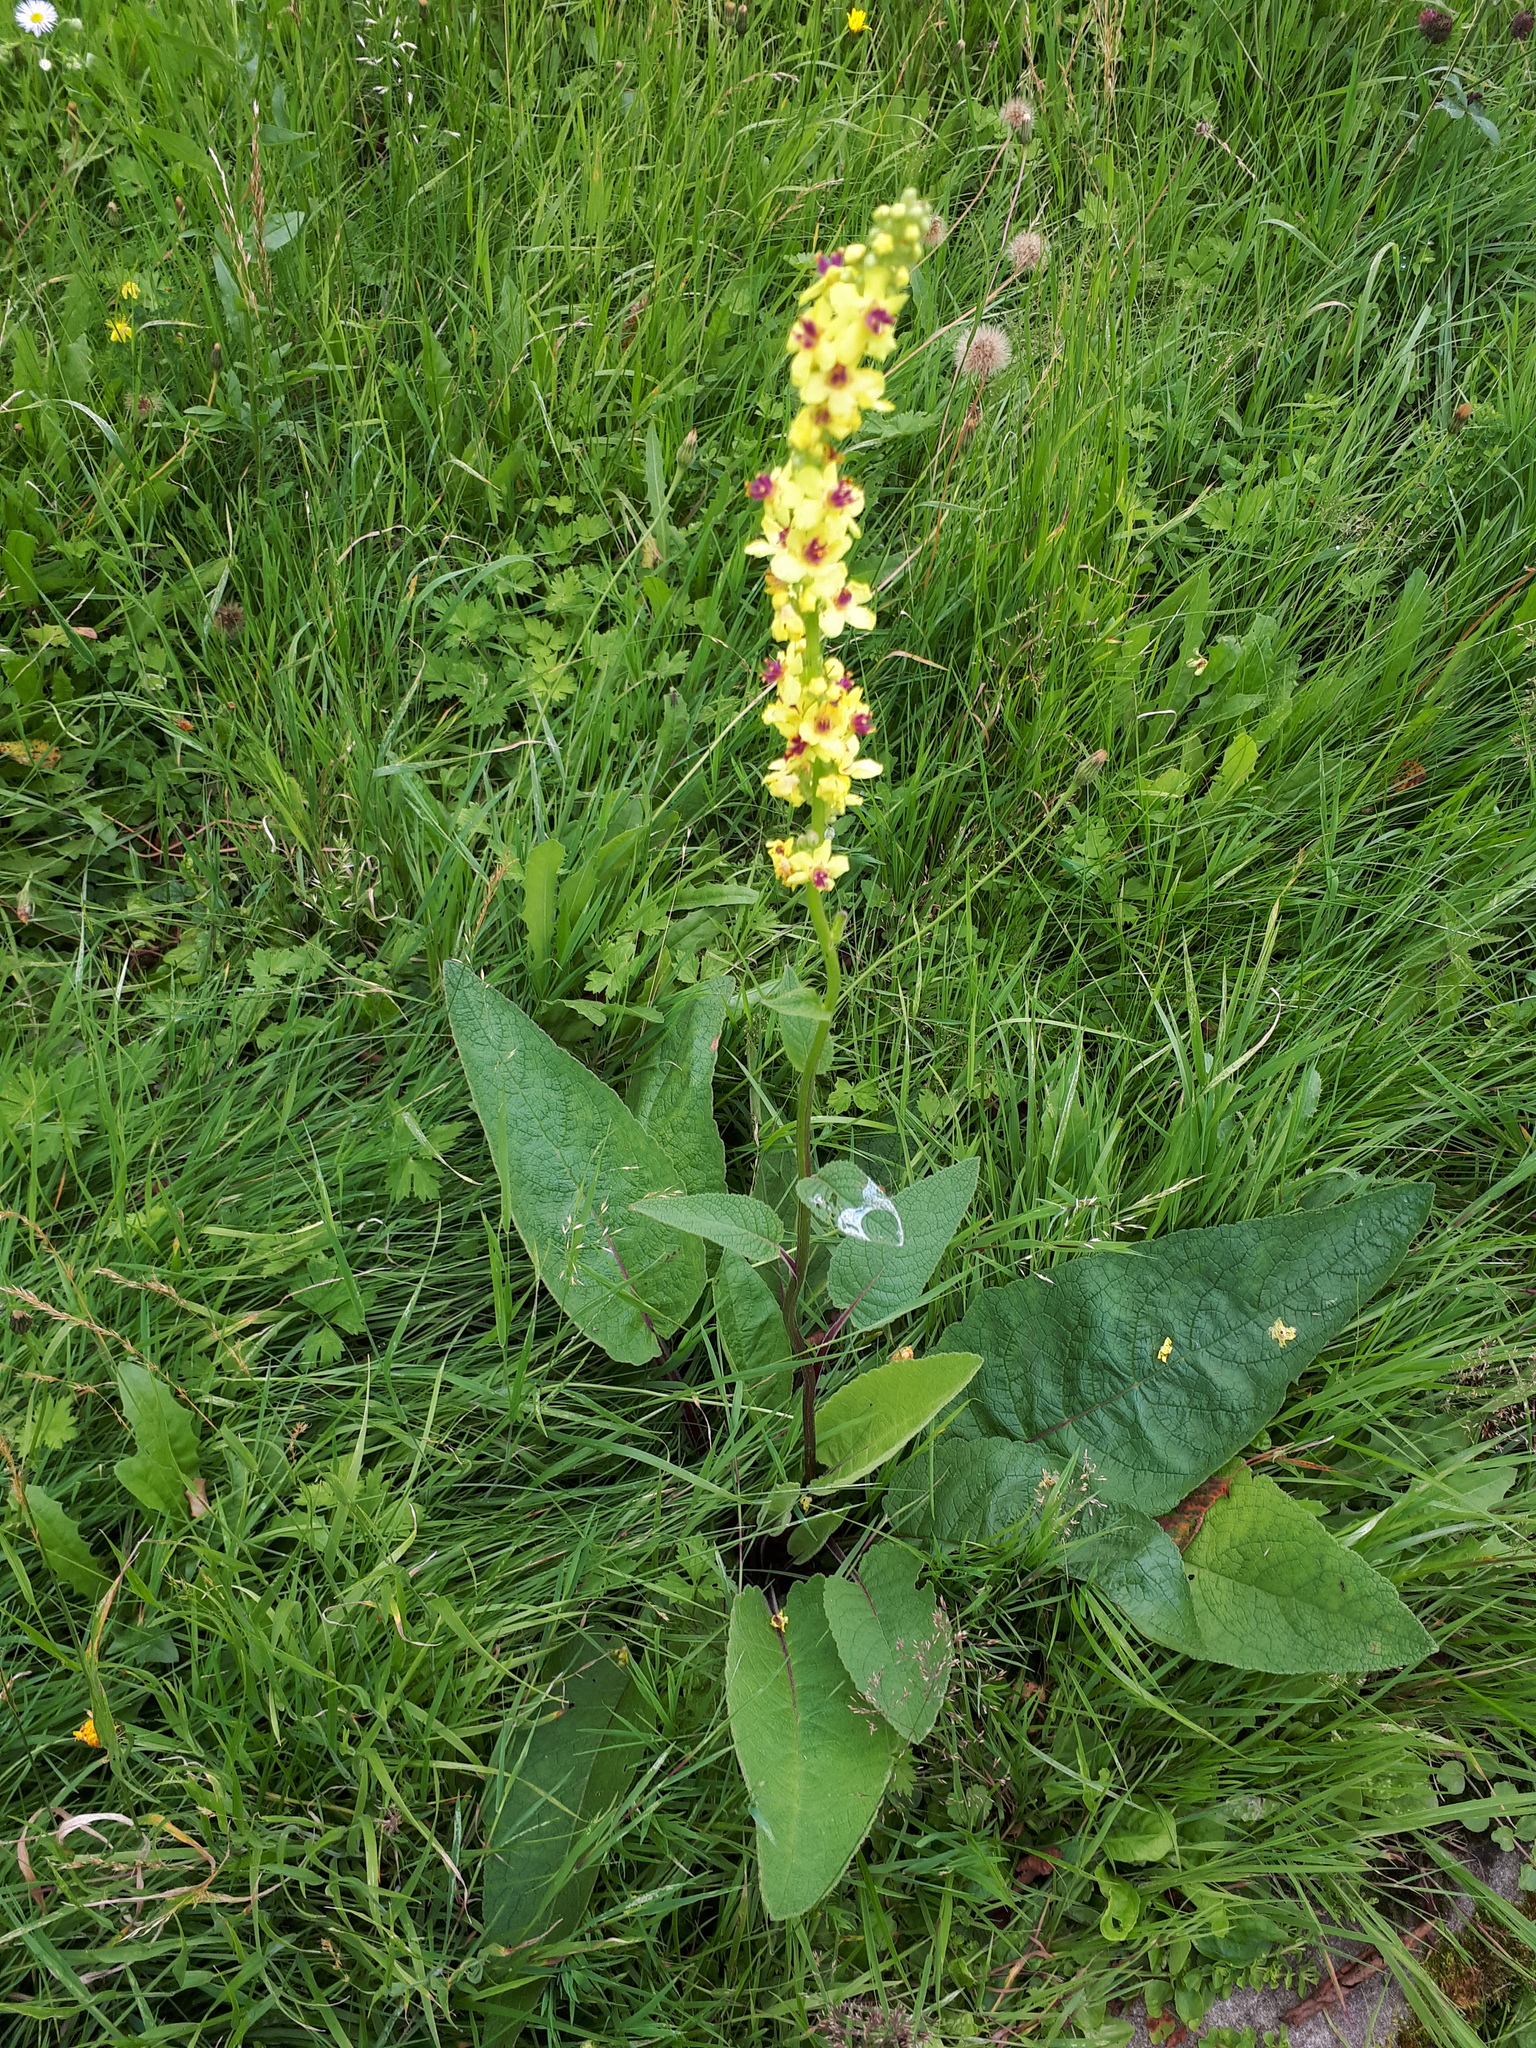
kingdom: Plantae
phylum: Tracheophyta
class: Magnoliopsida
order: Lamiales
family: Scrophulariaceae
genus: Verbascum
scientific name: Verbascum nigrum
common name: Dark mullein
